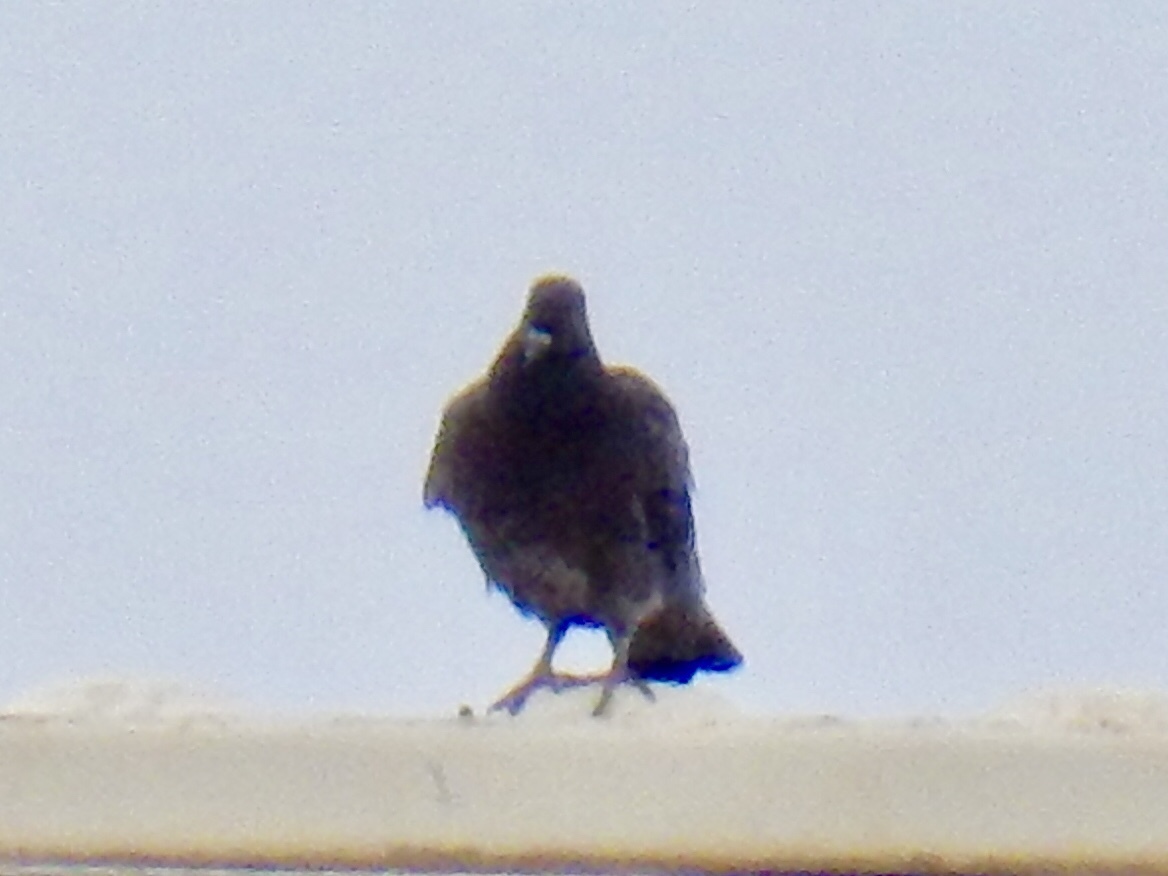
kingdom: Animalia
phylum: Chordata
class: Aves
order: Columbiformes
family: Columbidae
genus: Columba
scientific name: Columba livia
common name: Rock pigeon
